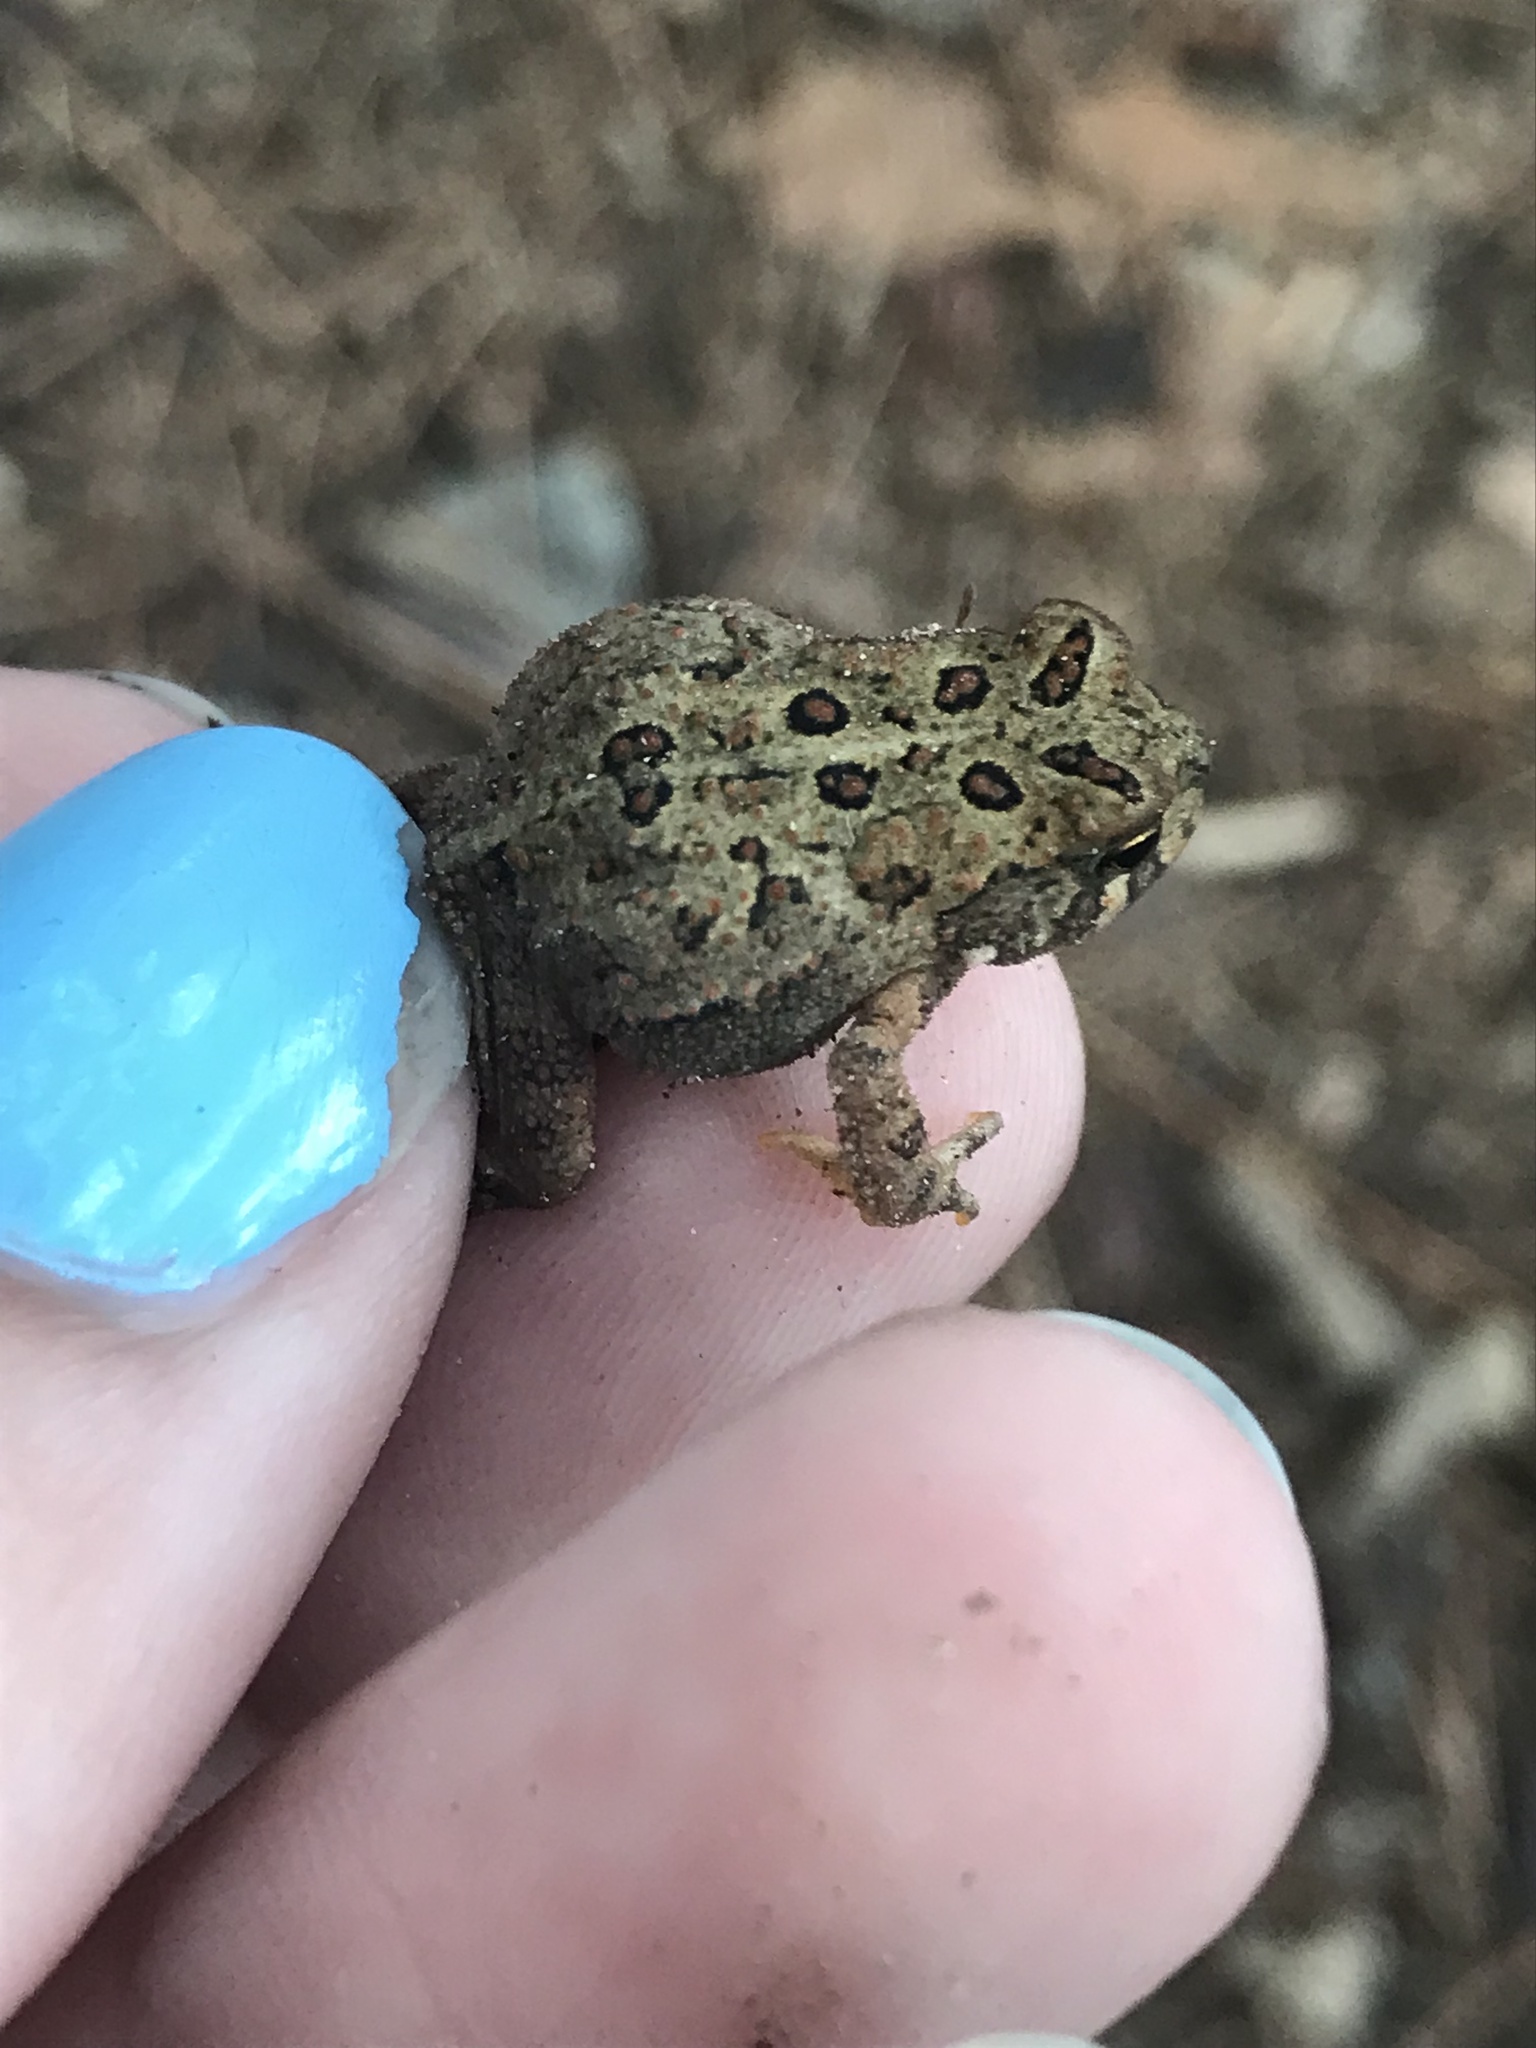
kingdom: Animalia
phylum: Chordata
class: Amphibia
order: Anura
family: Bufonidae
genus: Anaxyrus
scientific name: Anaxyrus americanus
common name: American toad
